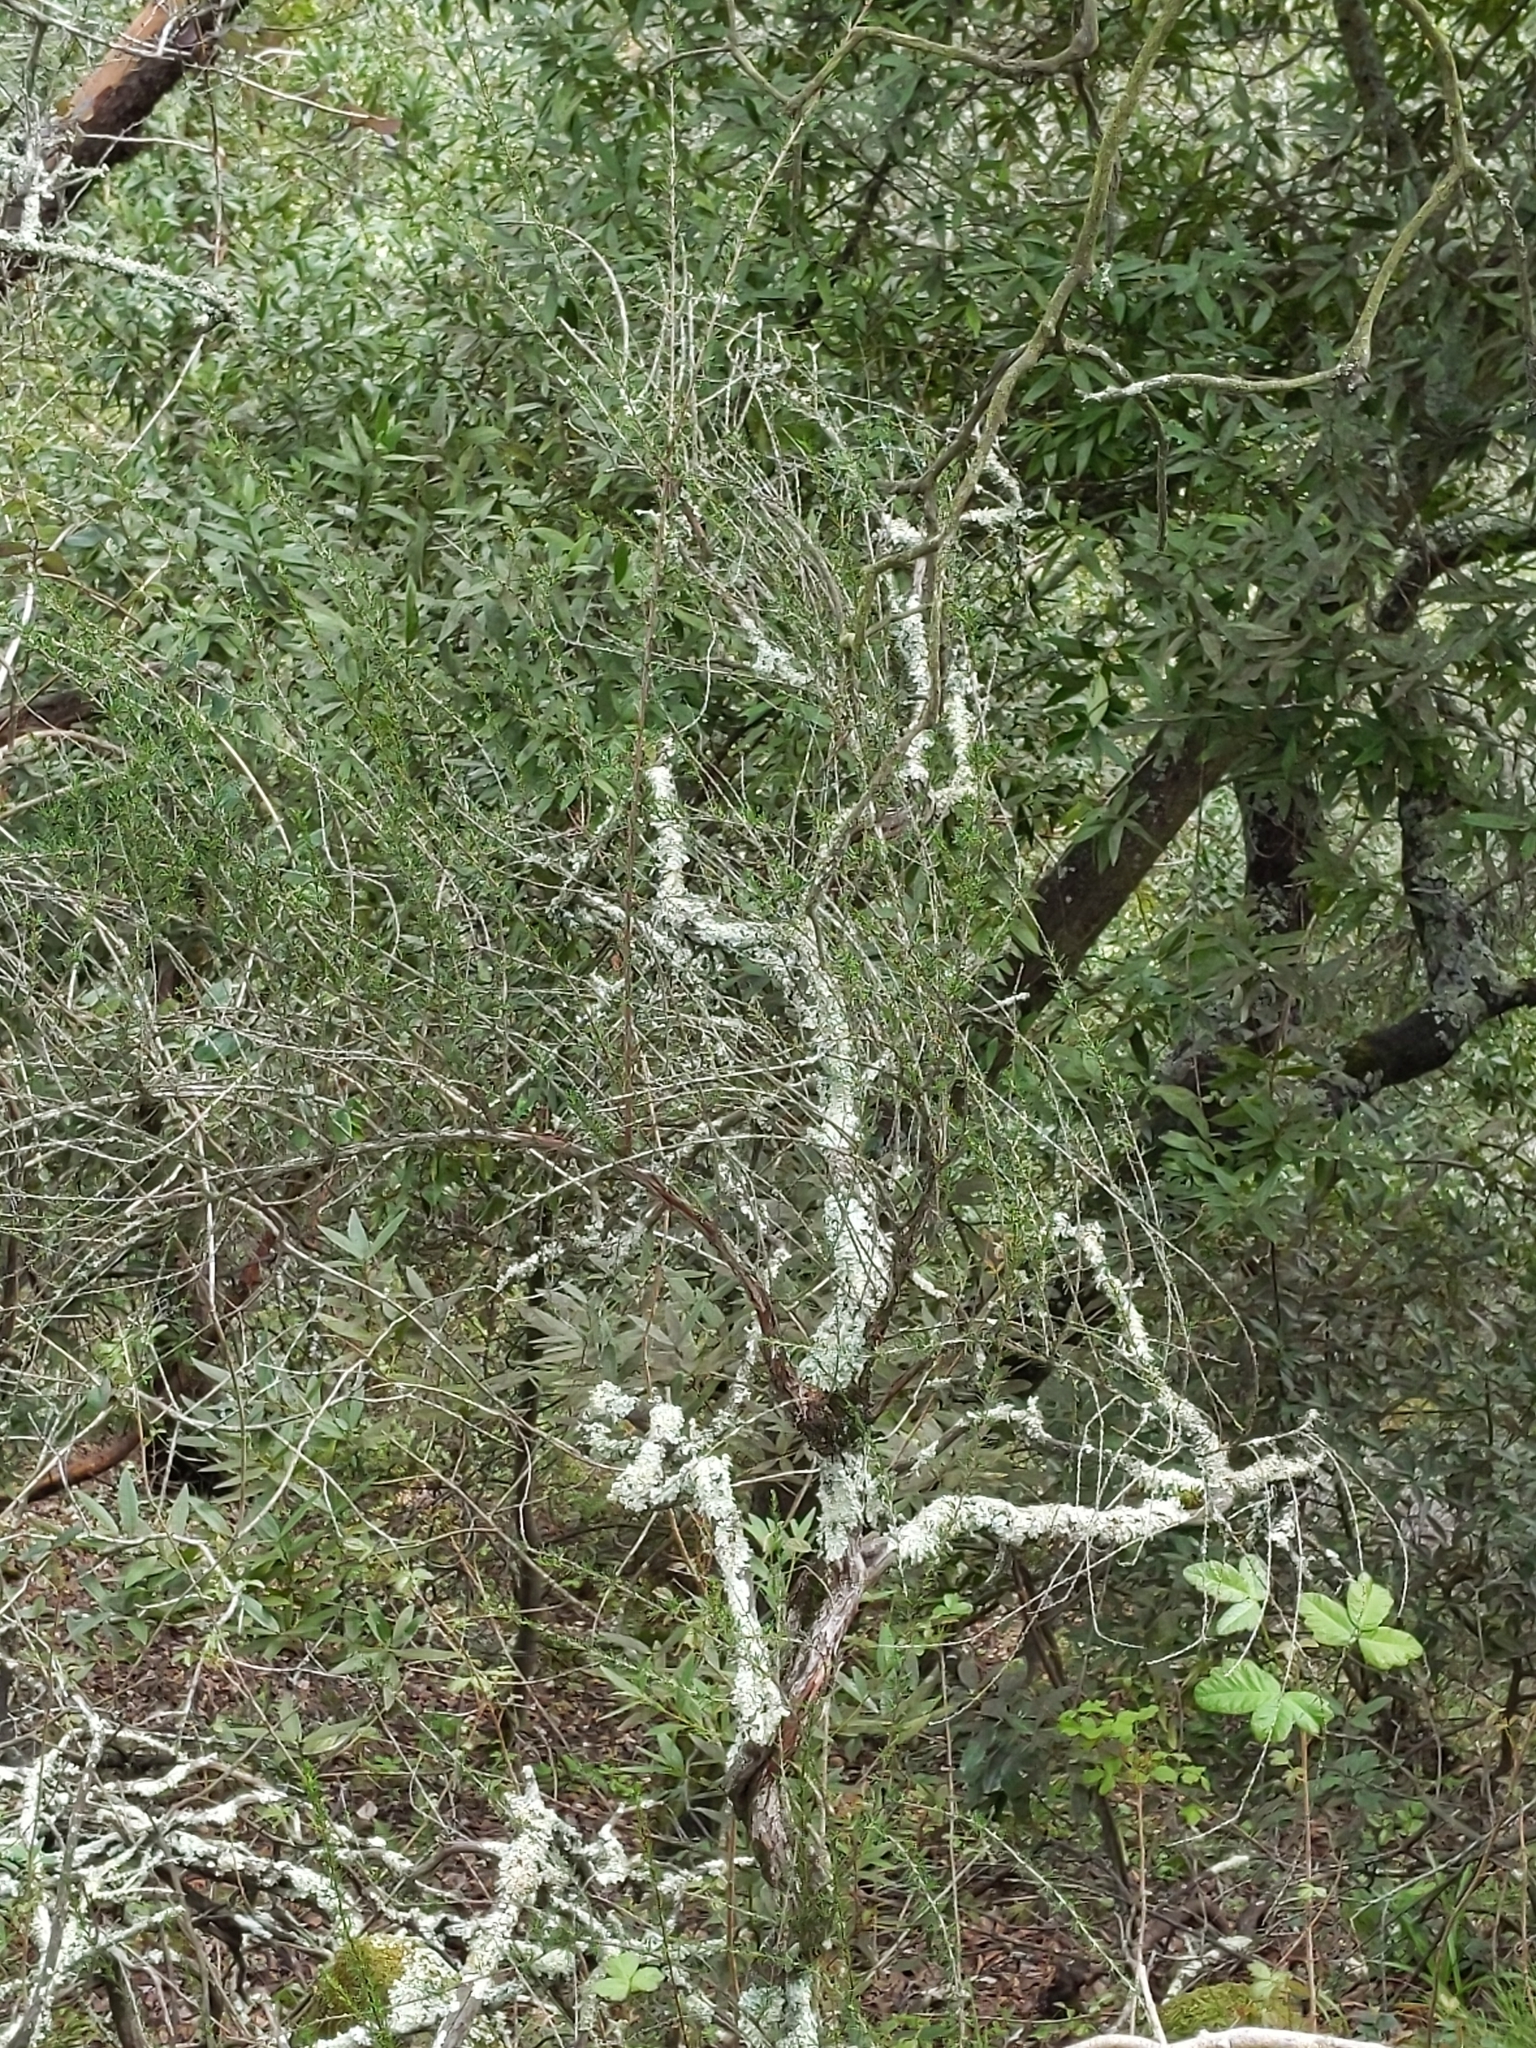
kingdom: Plantae
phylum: Tracheophyta
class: Magnoliopsida
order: Rosales
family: Rosaceae
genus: Adenostoma
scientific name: Adenostoma fasciculatum
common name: Chamise
